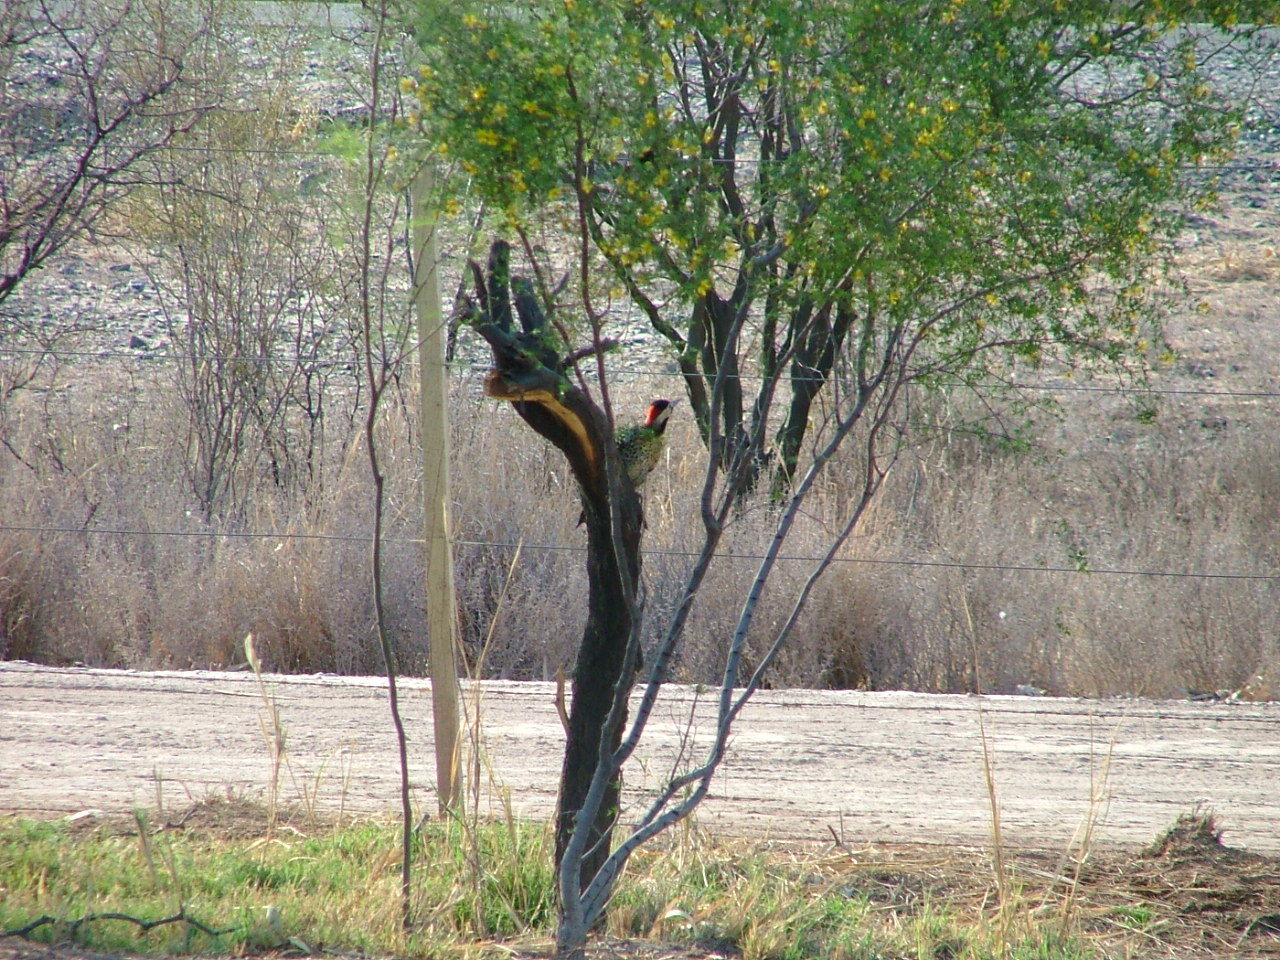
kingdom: Animalia
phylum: Chordata
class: Aves
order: Piciformes
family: Picidae
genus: Colaptes
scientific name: Colaptes melanochloros
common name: Green-barred woodpecker
